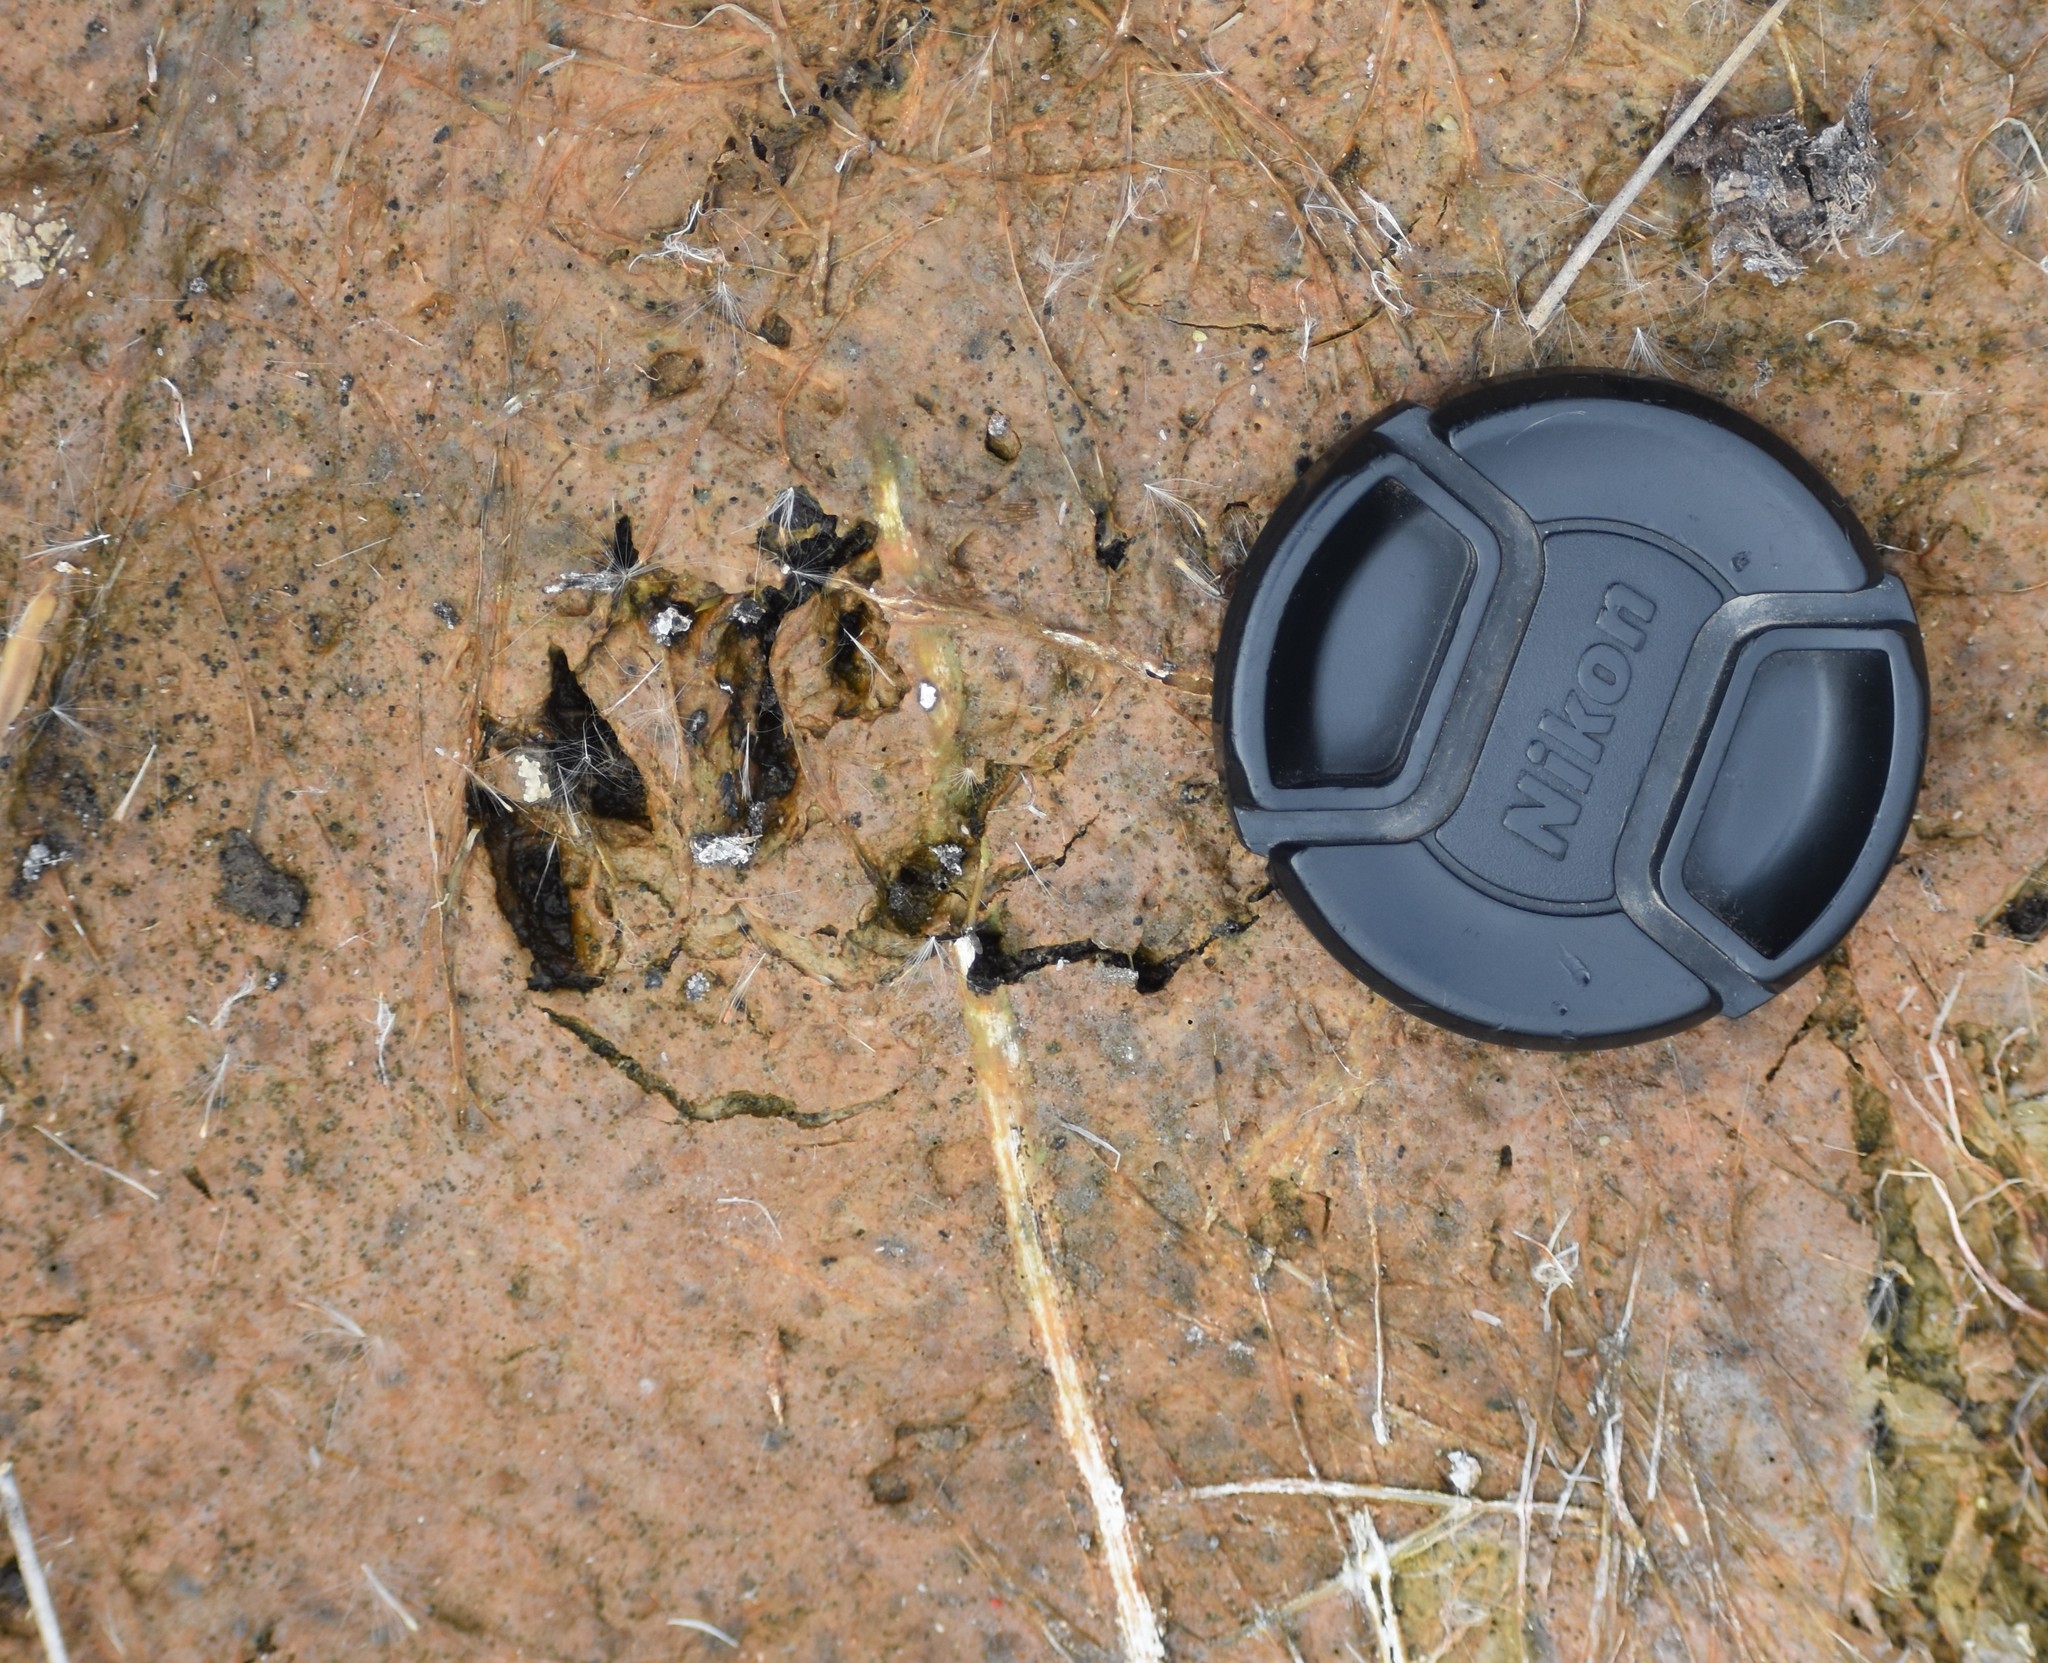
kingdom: Animalia
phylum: Chordata
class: Mammalia
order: Carnivora
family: Herpestidae
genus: Atilax
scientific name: Atilax paludinosus
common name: Marsh mongoose
